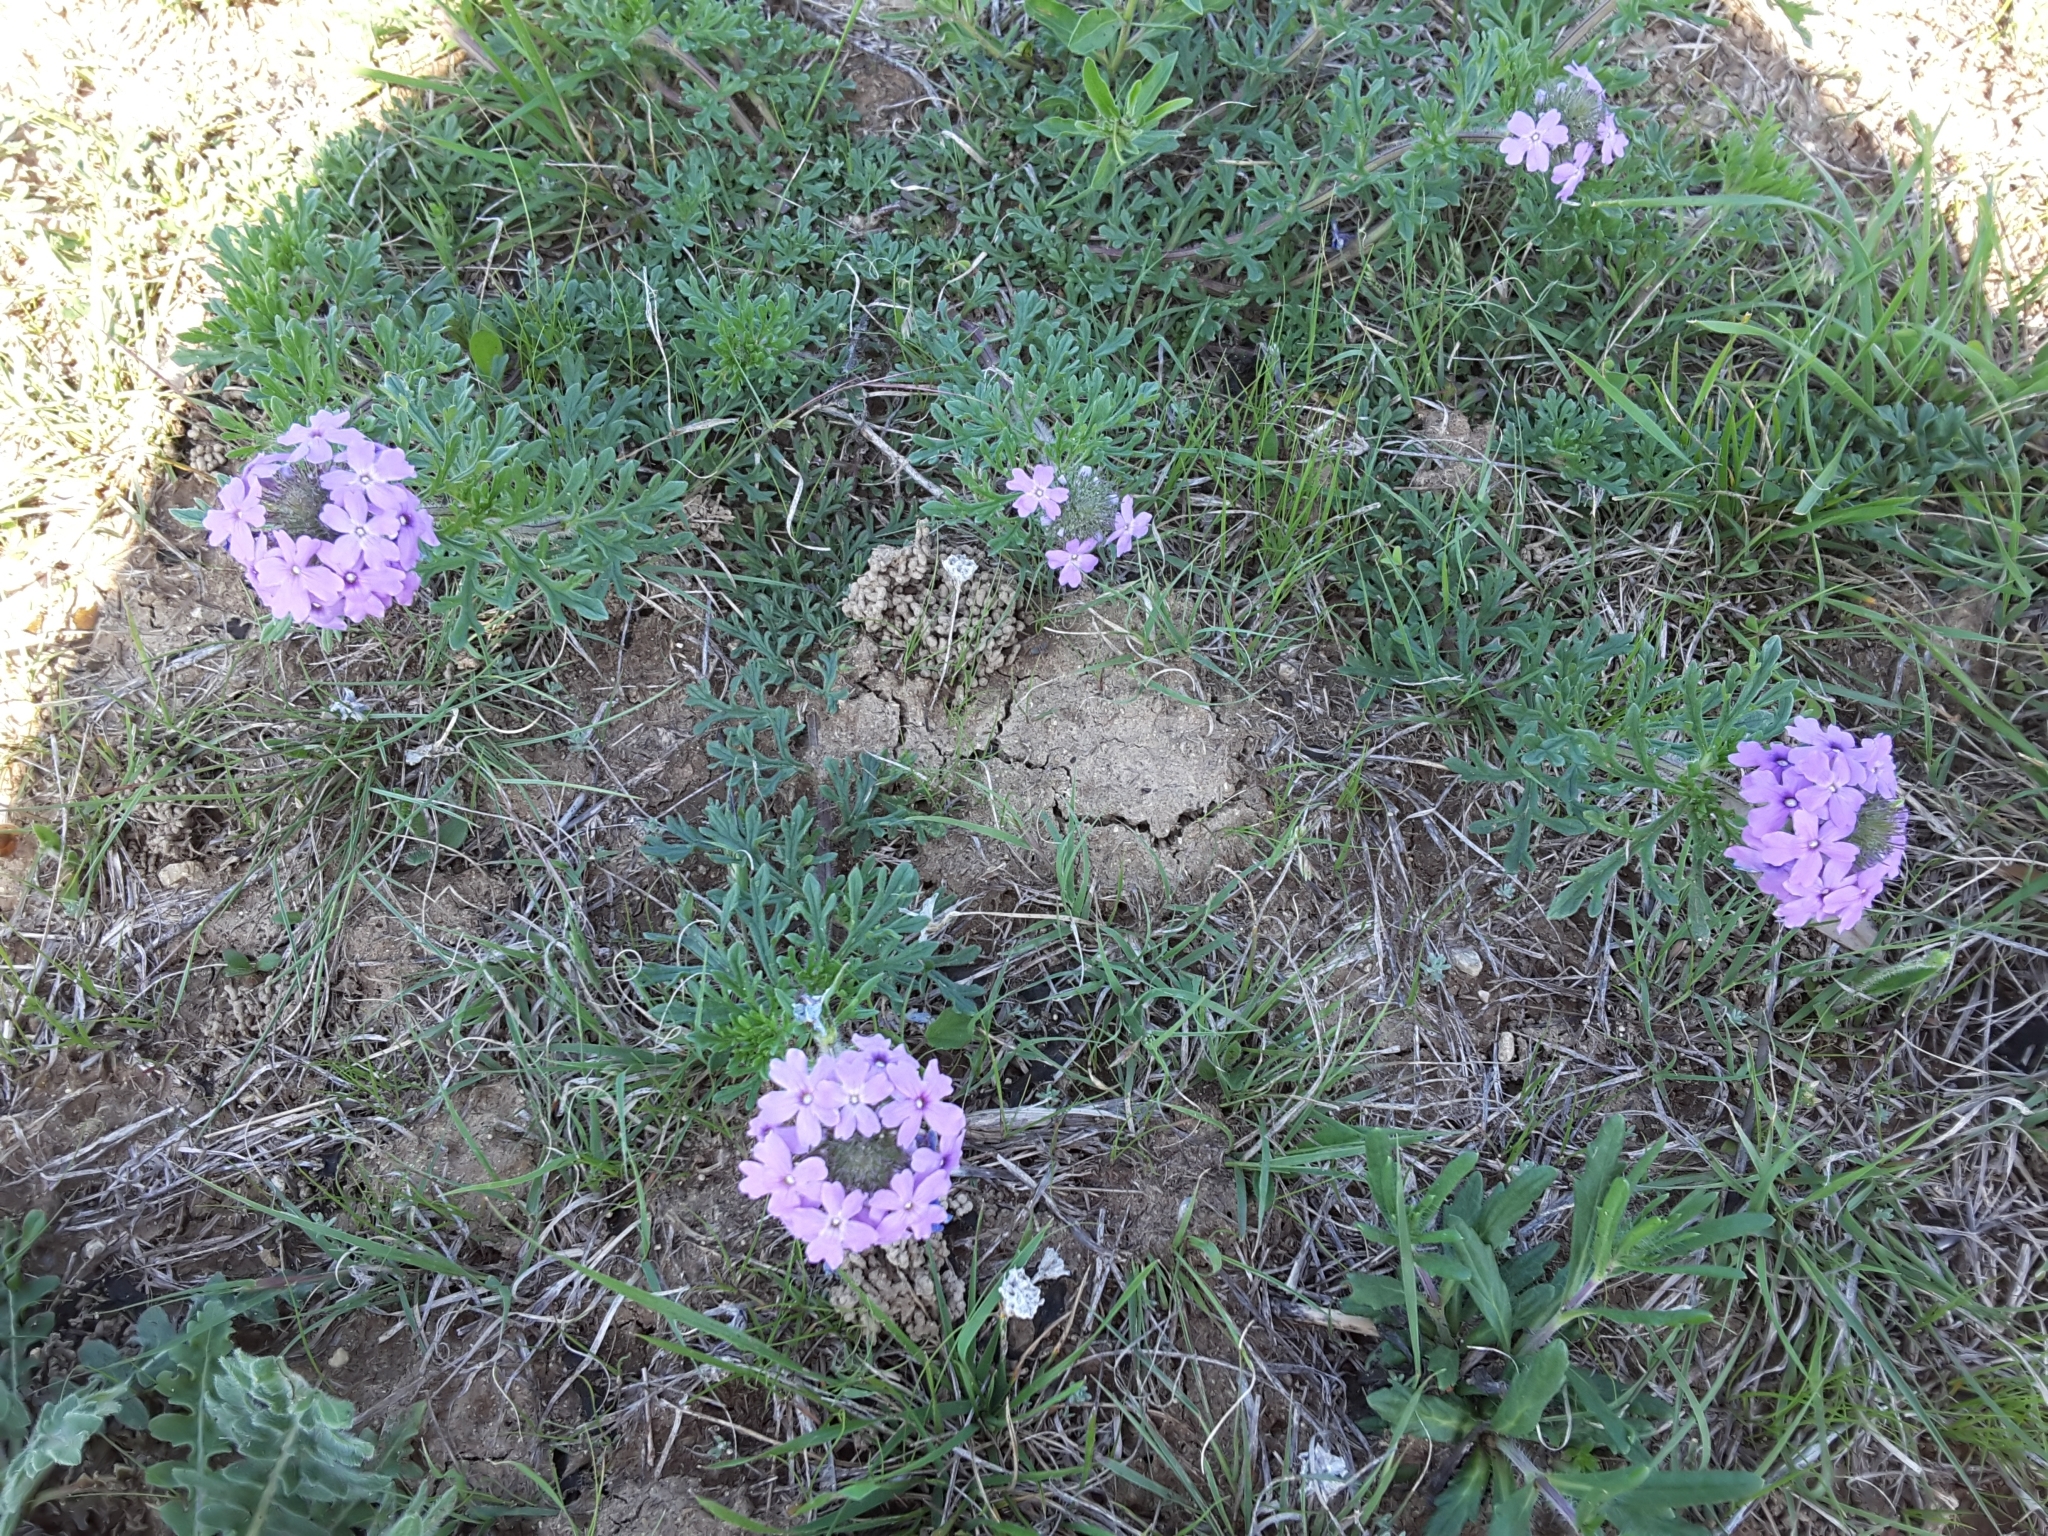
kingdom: Plantae
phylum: Tracheophyta
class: Magnoliopsida
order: Lamiales
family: Verbenaceae
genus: Verbena
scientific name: Verbena bipinnatifida
